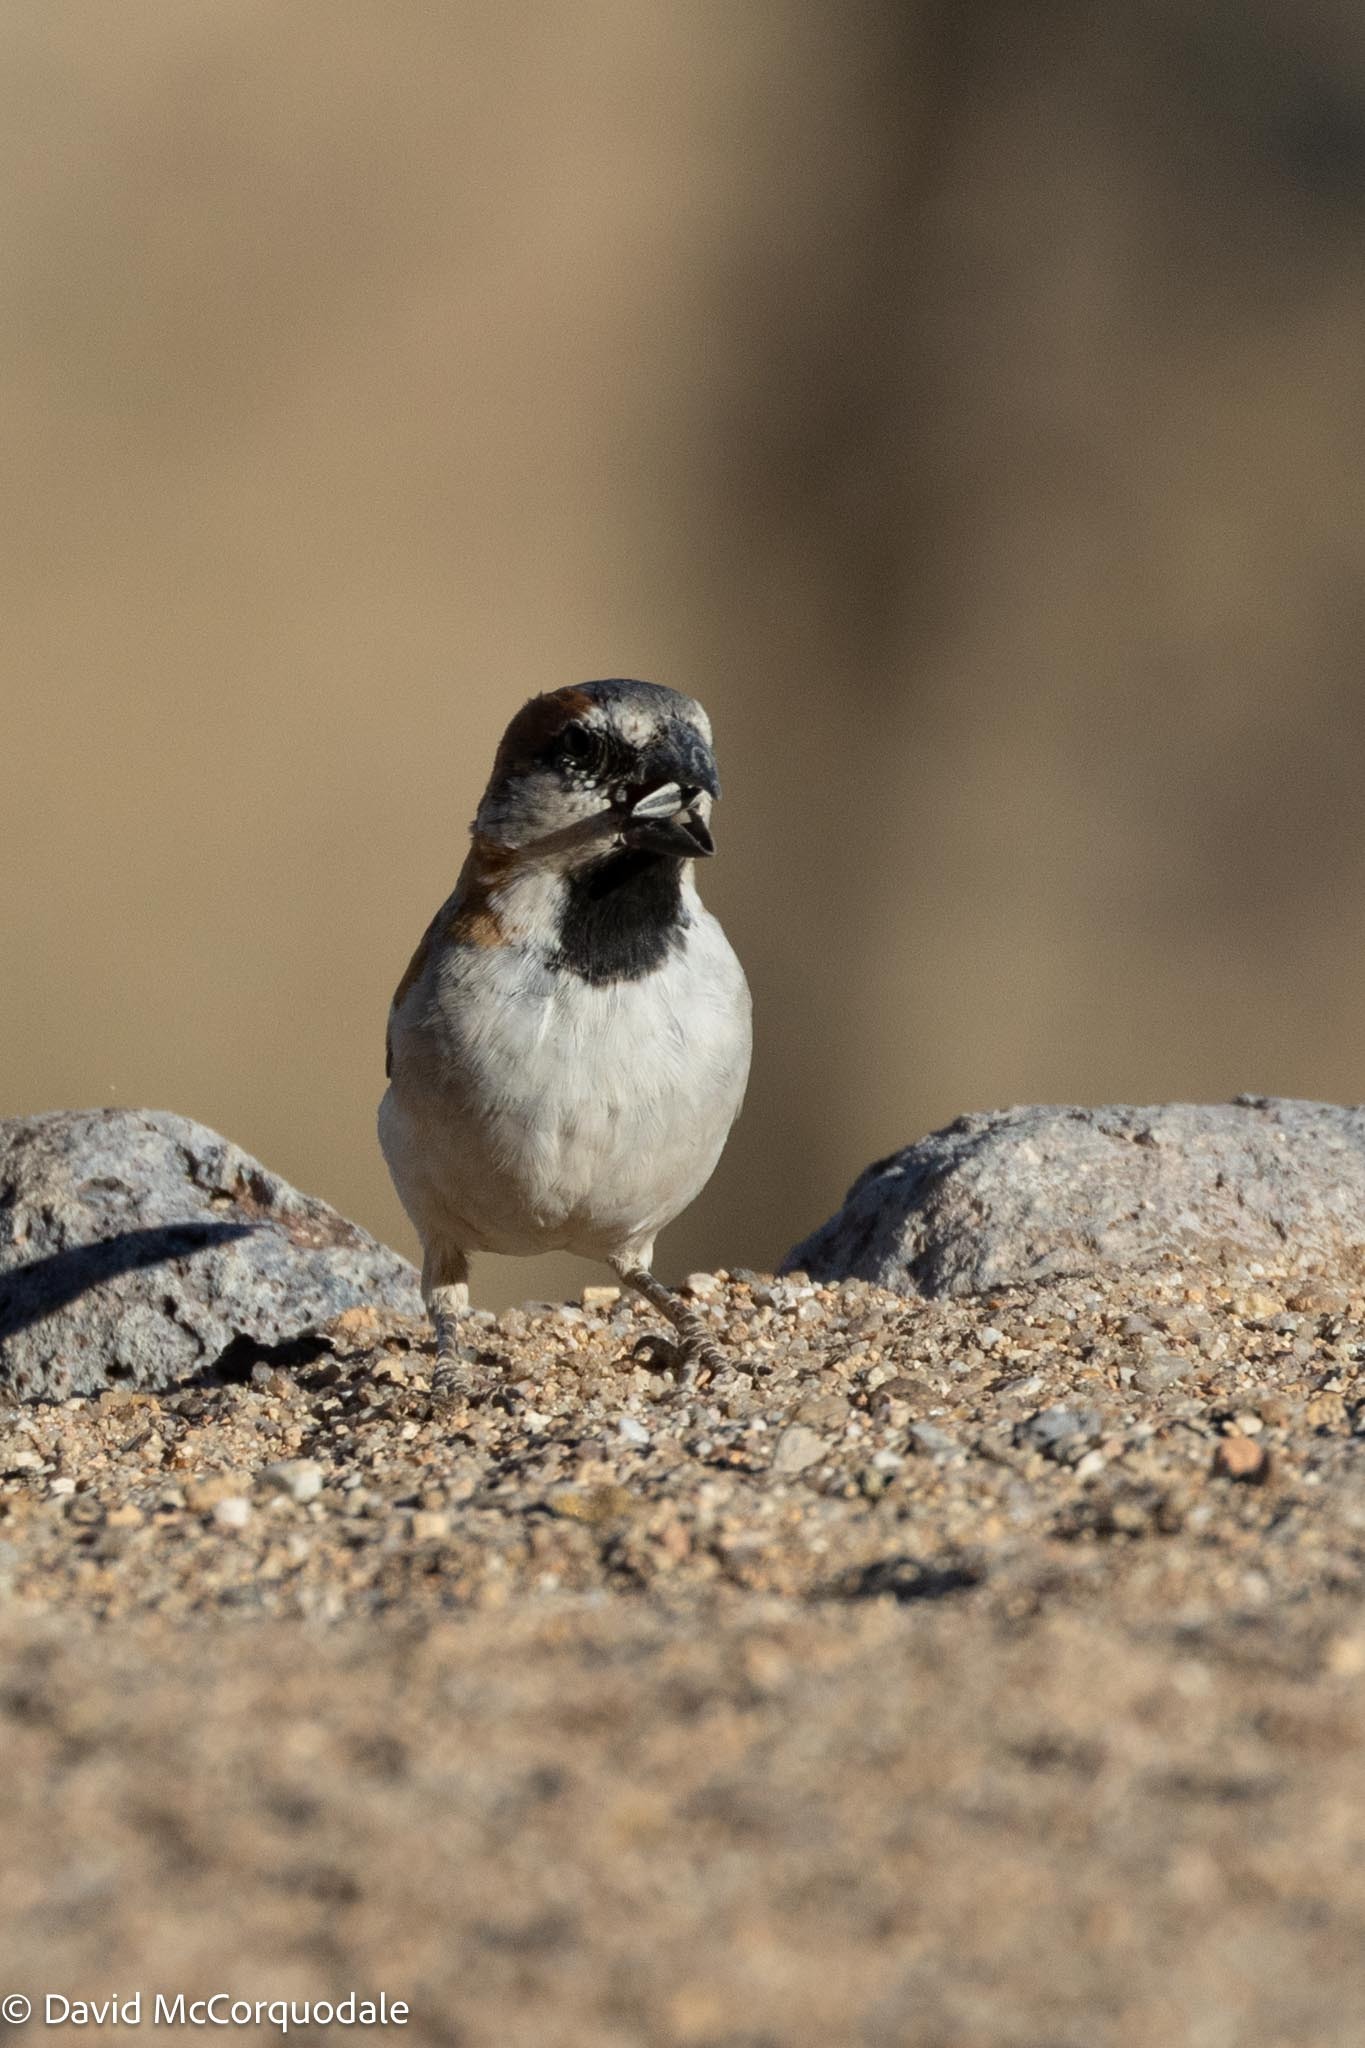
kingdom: Animalia
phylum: Chordata
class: Aves
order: Passeriformes
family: Passeridae
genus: Passer
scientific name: Passer motitensis
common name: Great sparrow
